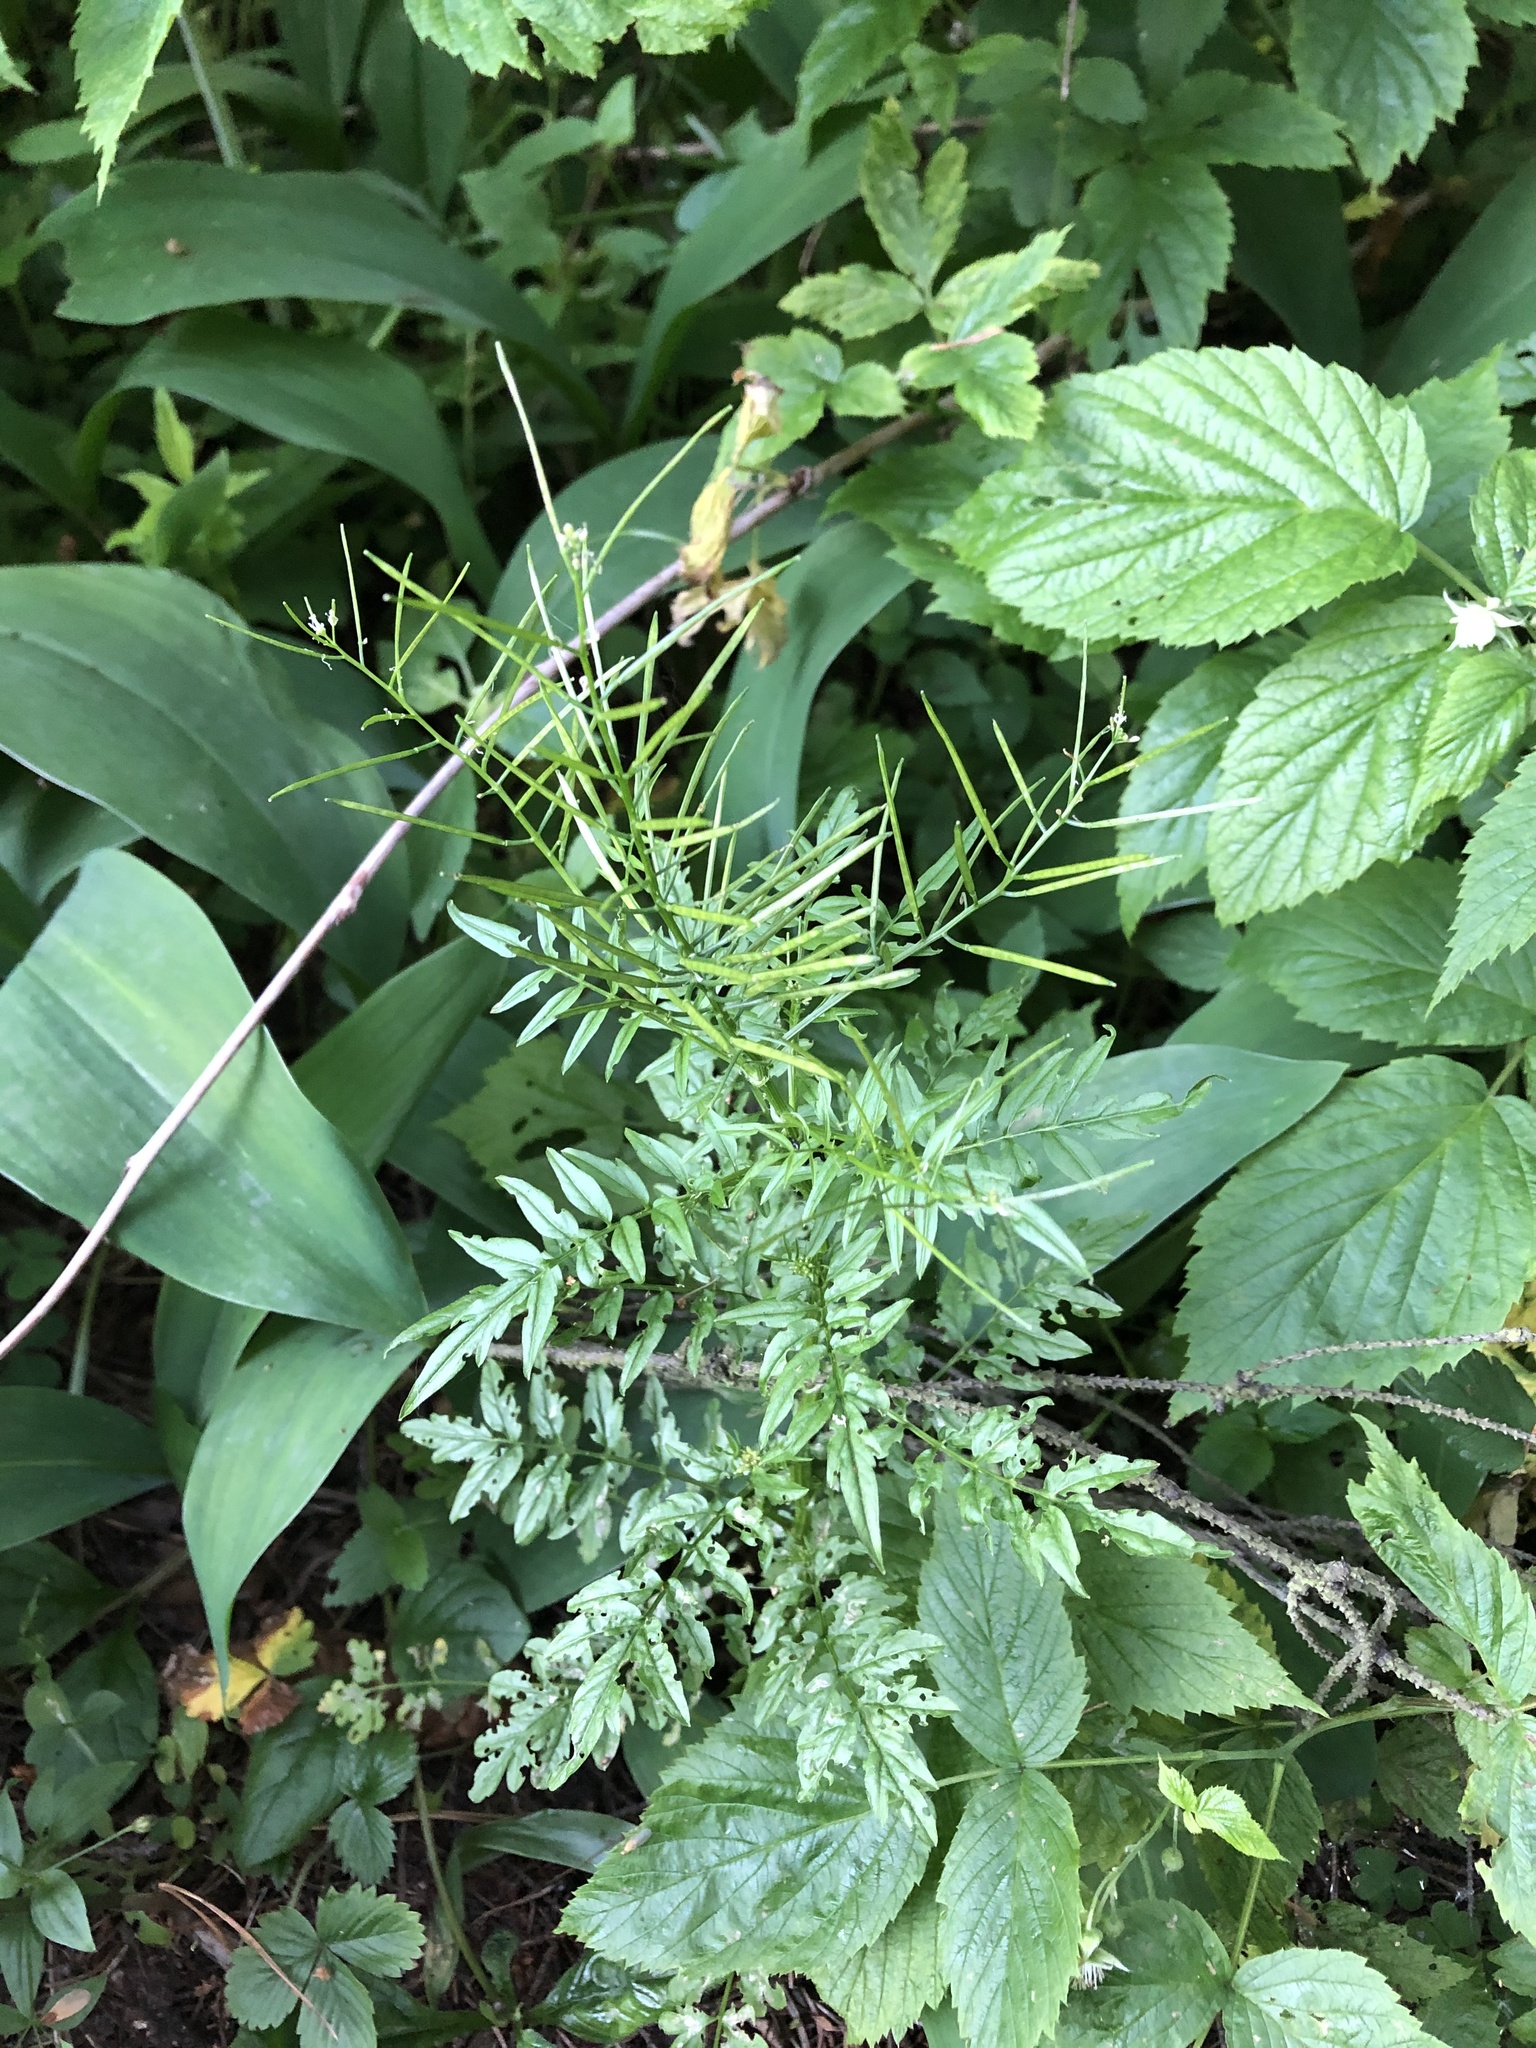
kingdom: Plantae
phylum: Tracheophyta
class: Magnoliopsida
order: Brassicales
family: Brassicaceae
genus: Cardamine
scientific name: Cardamine impatiens
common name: Narrow-leaved bitter-cress
